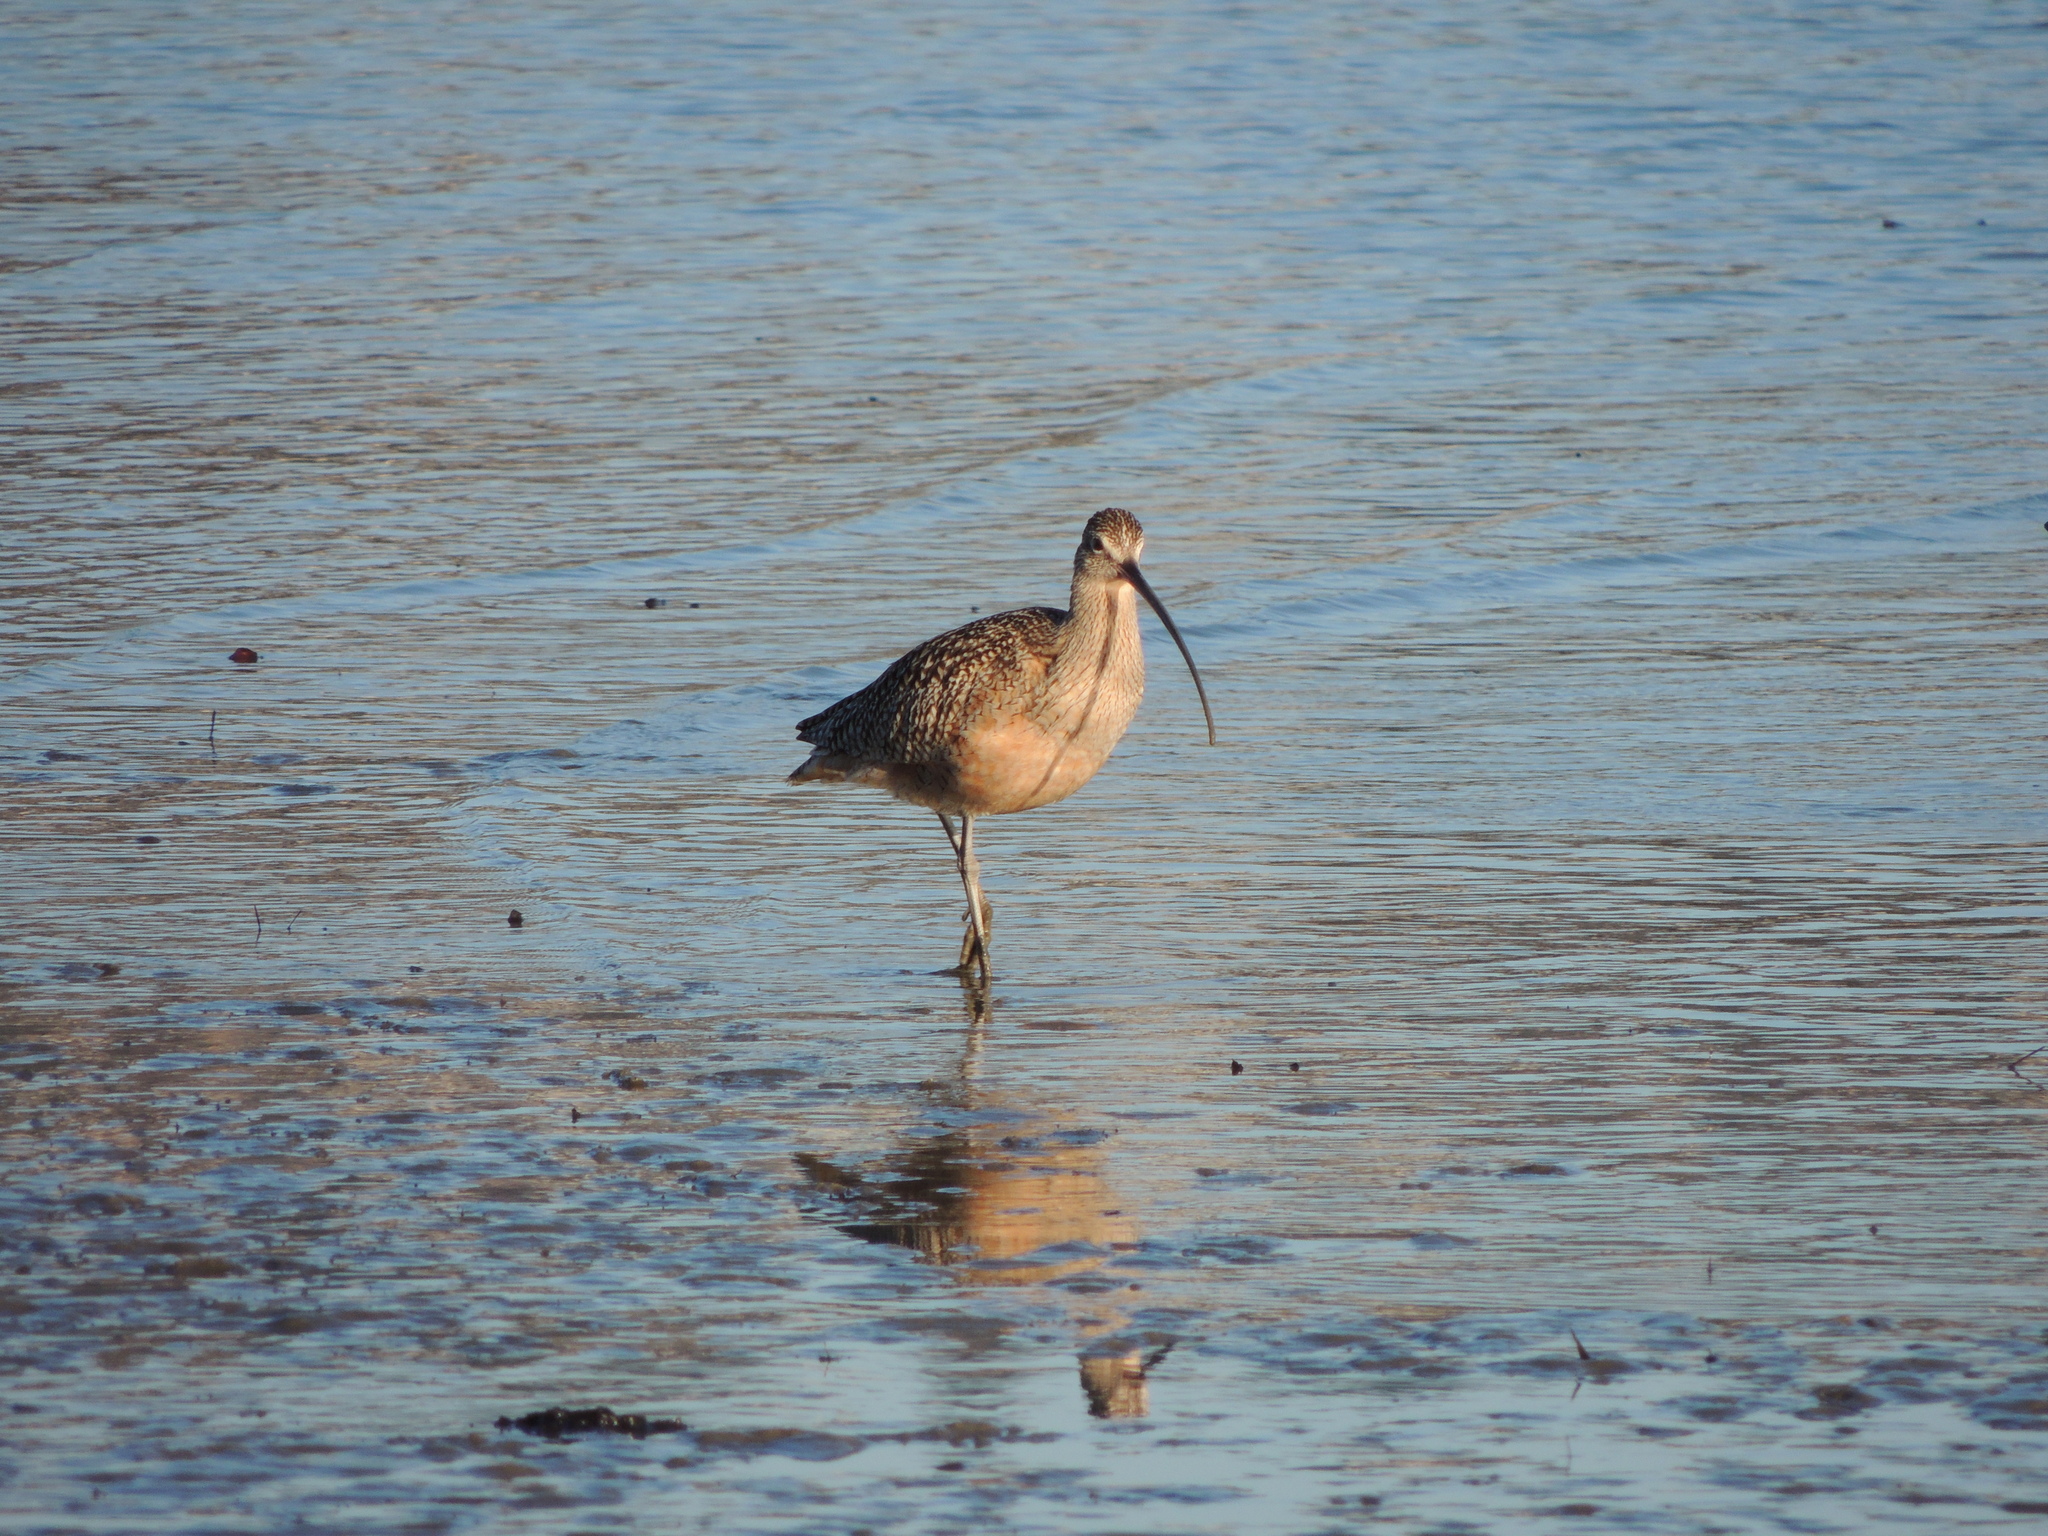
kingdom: Animalia
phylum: Chordata
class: Aves
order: Charadriiformes
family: Scolopacidae
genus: Numenius
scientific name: Numenius americanus
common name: Long-billed curlew
